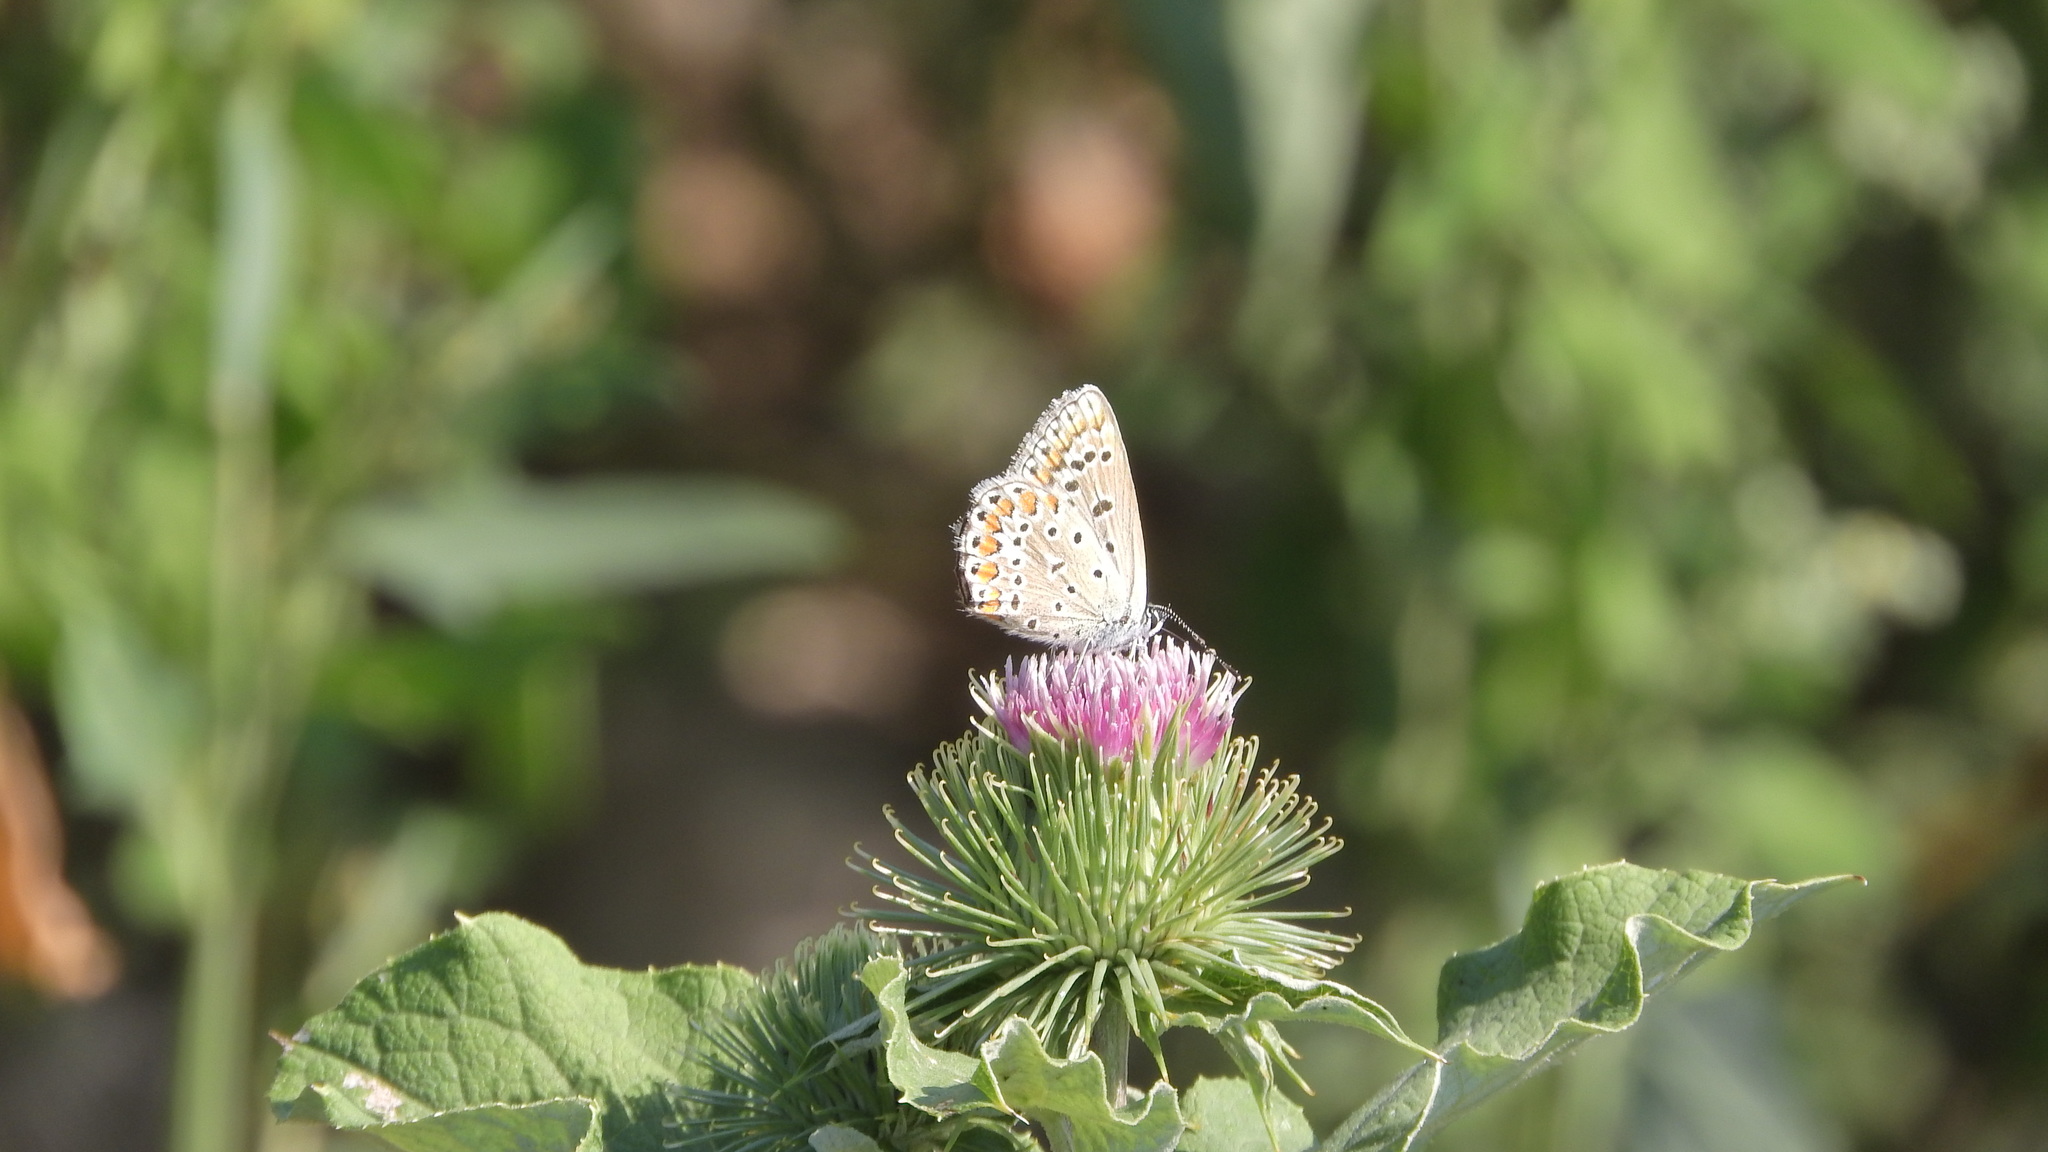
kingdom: Animalia
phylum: Arthropoda
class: Insecta
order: Lepidoptera
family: Lycaenidae
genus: Polyommatus
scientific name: Polyommatus icarus
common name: Common blue
